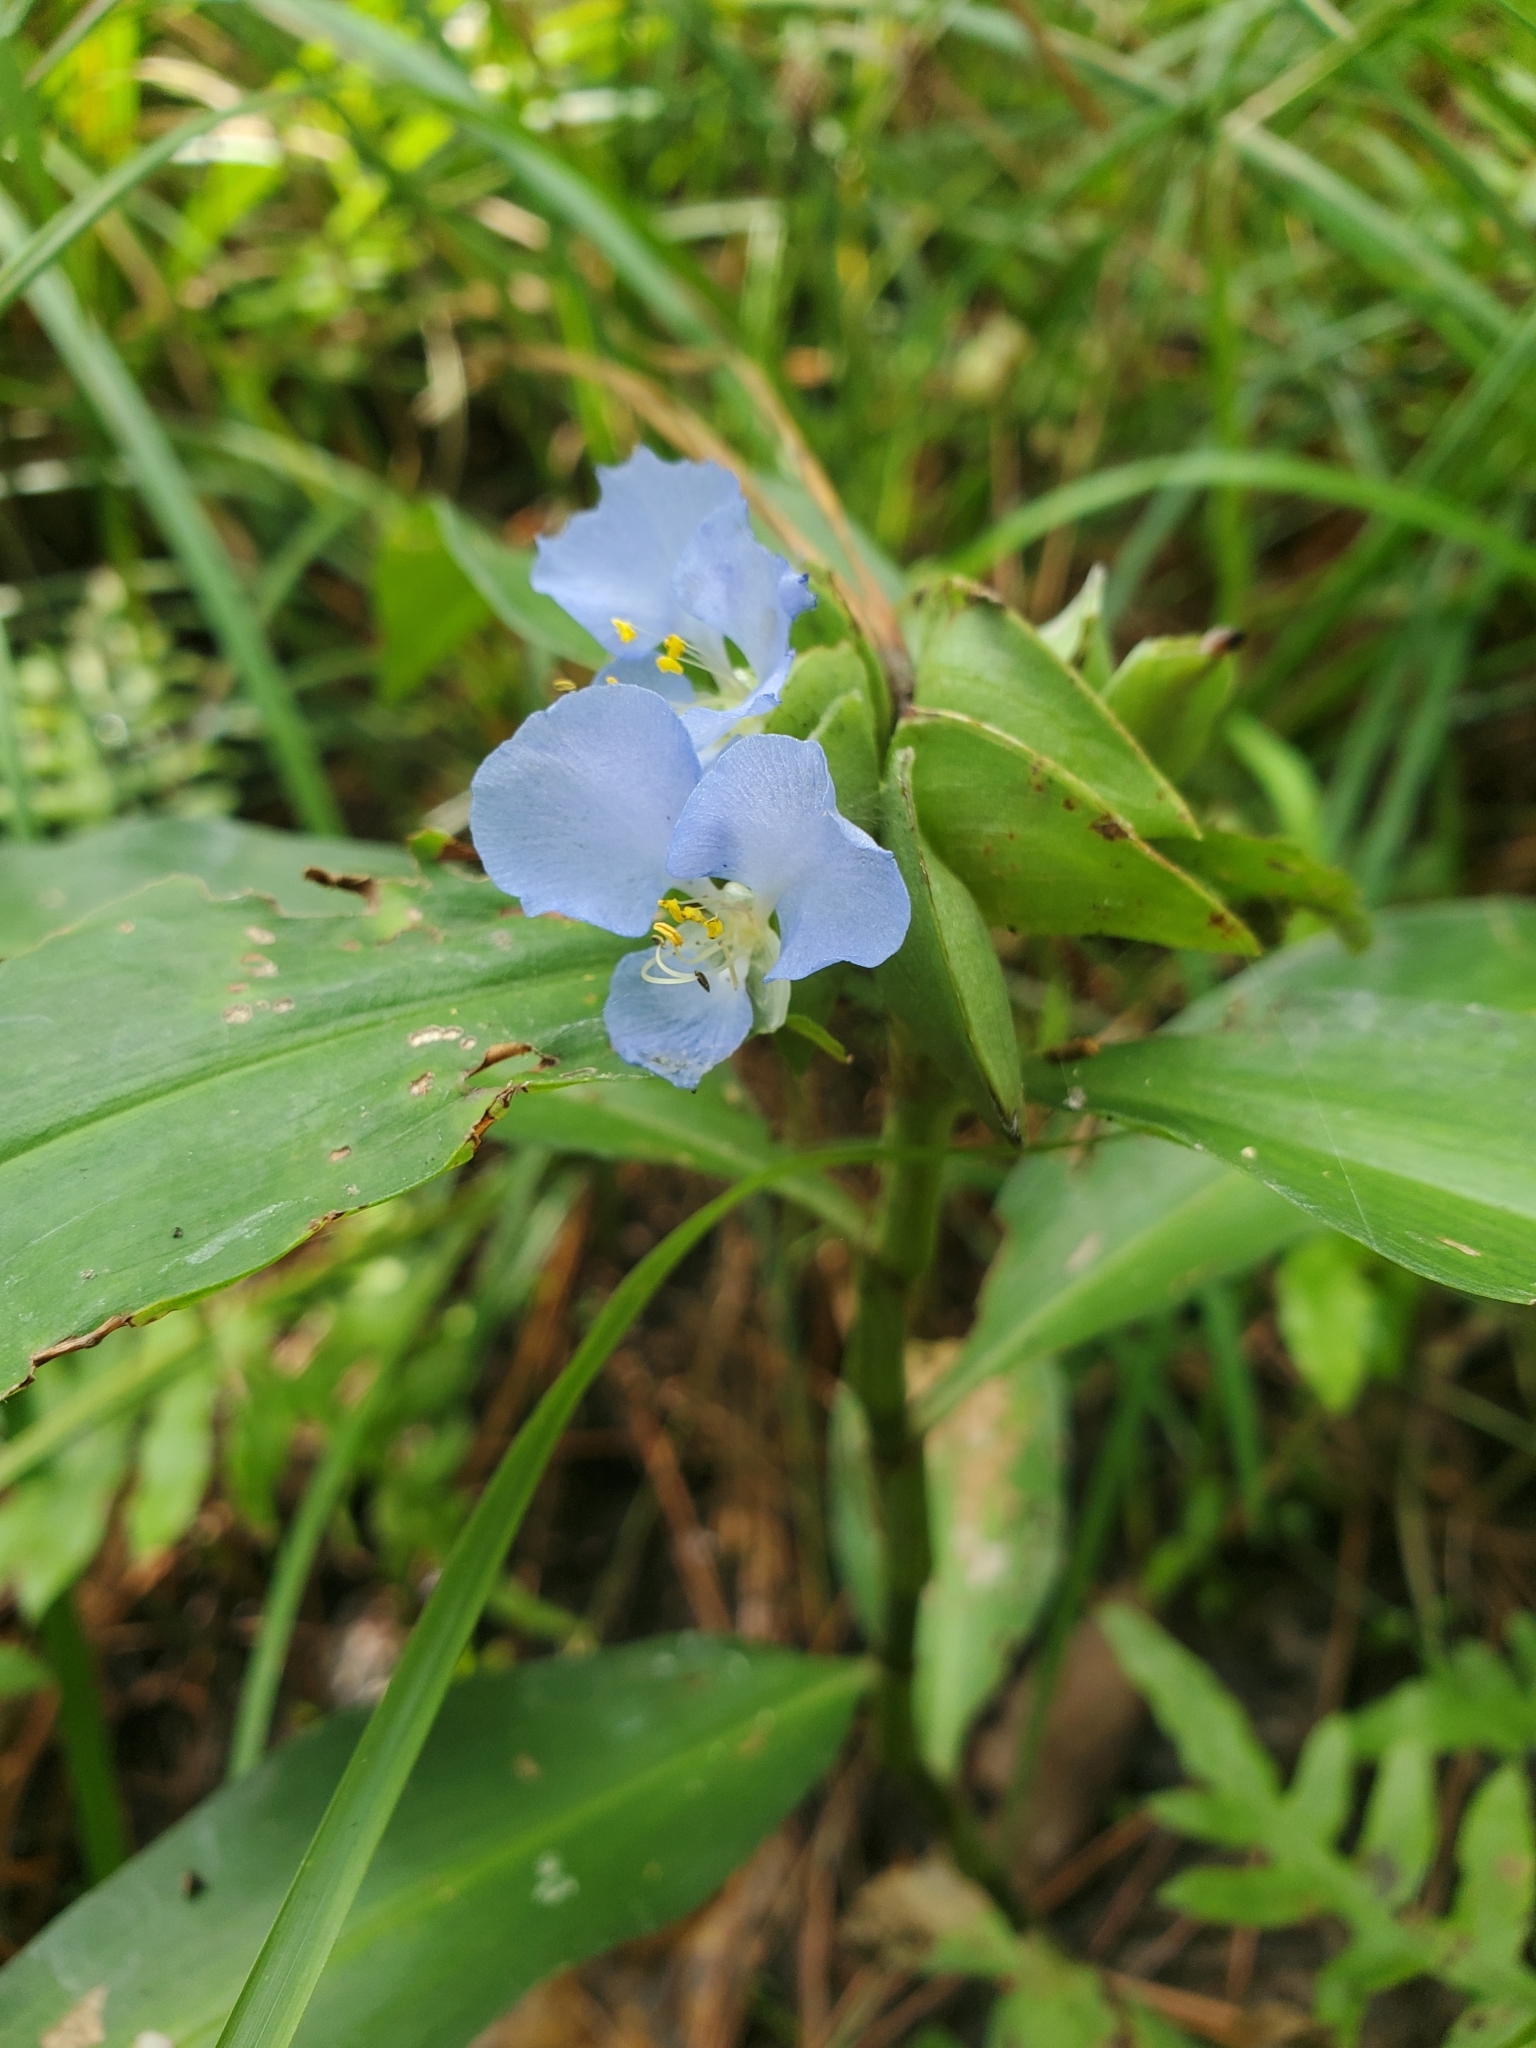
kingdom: Plantae
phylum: Tracheophyta
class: Liliopsida
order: Commelinales
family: Commelinaceae
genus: Commelina
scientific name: Commelina virginica
